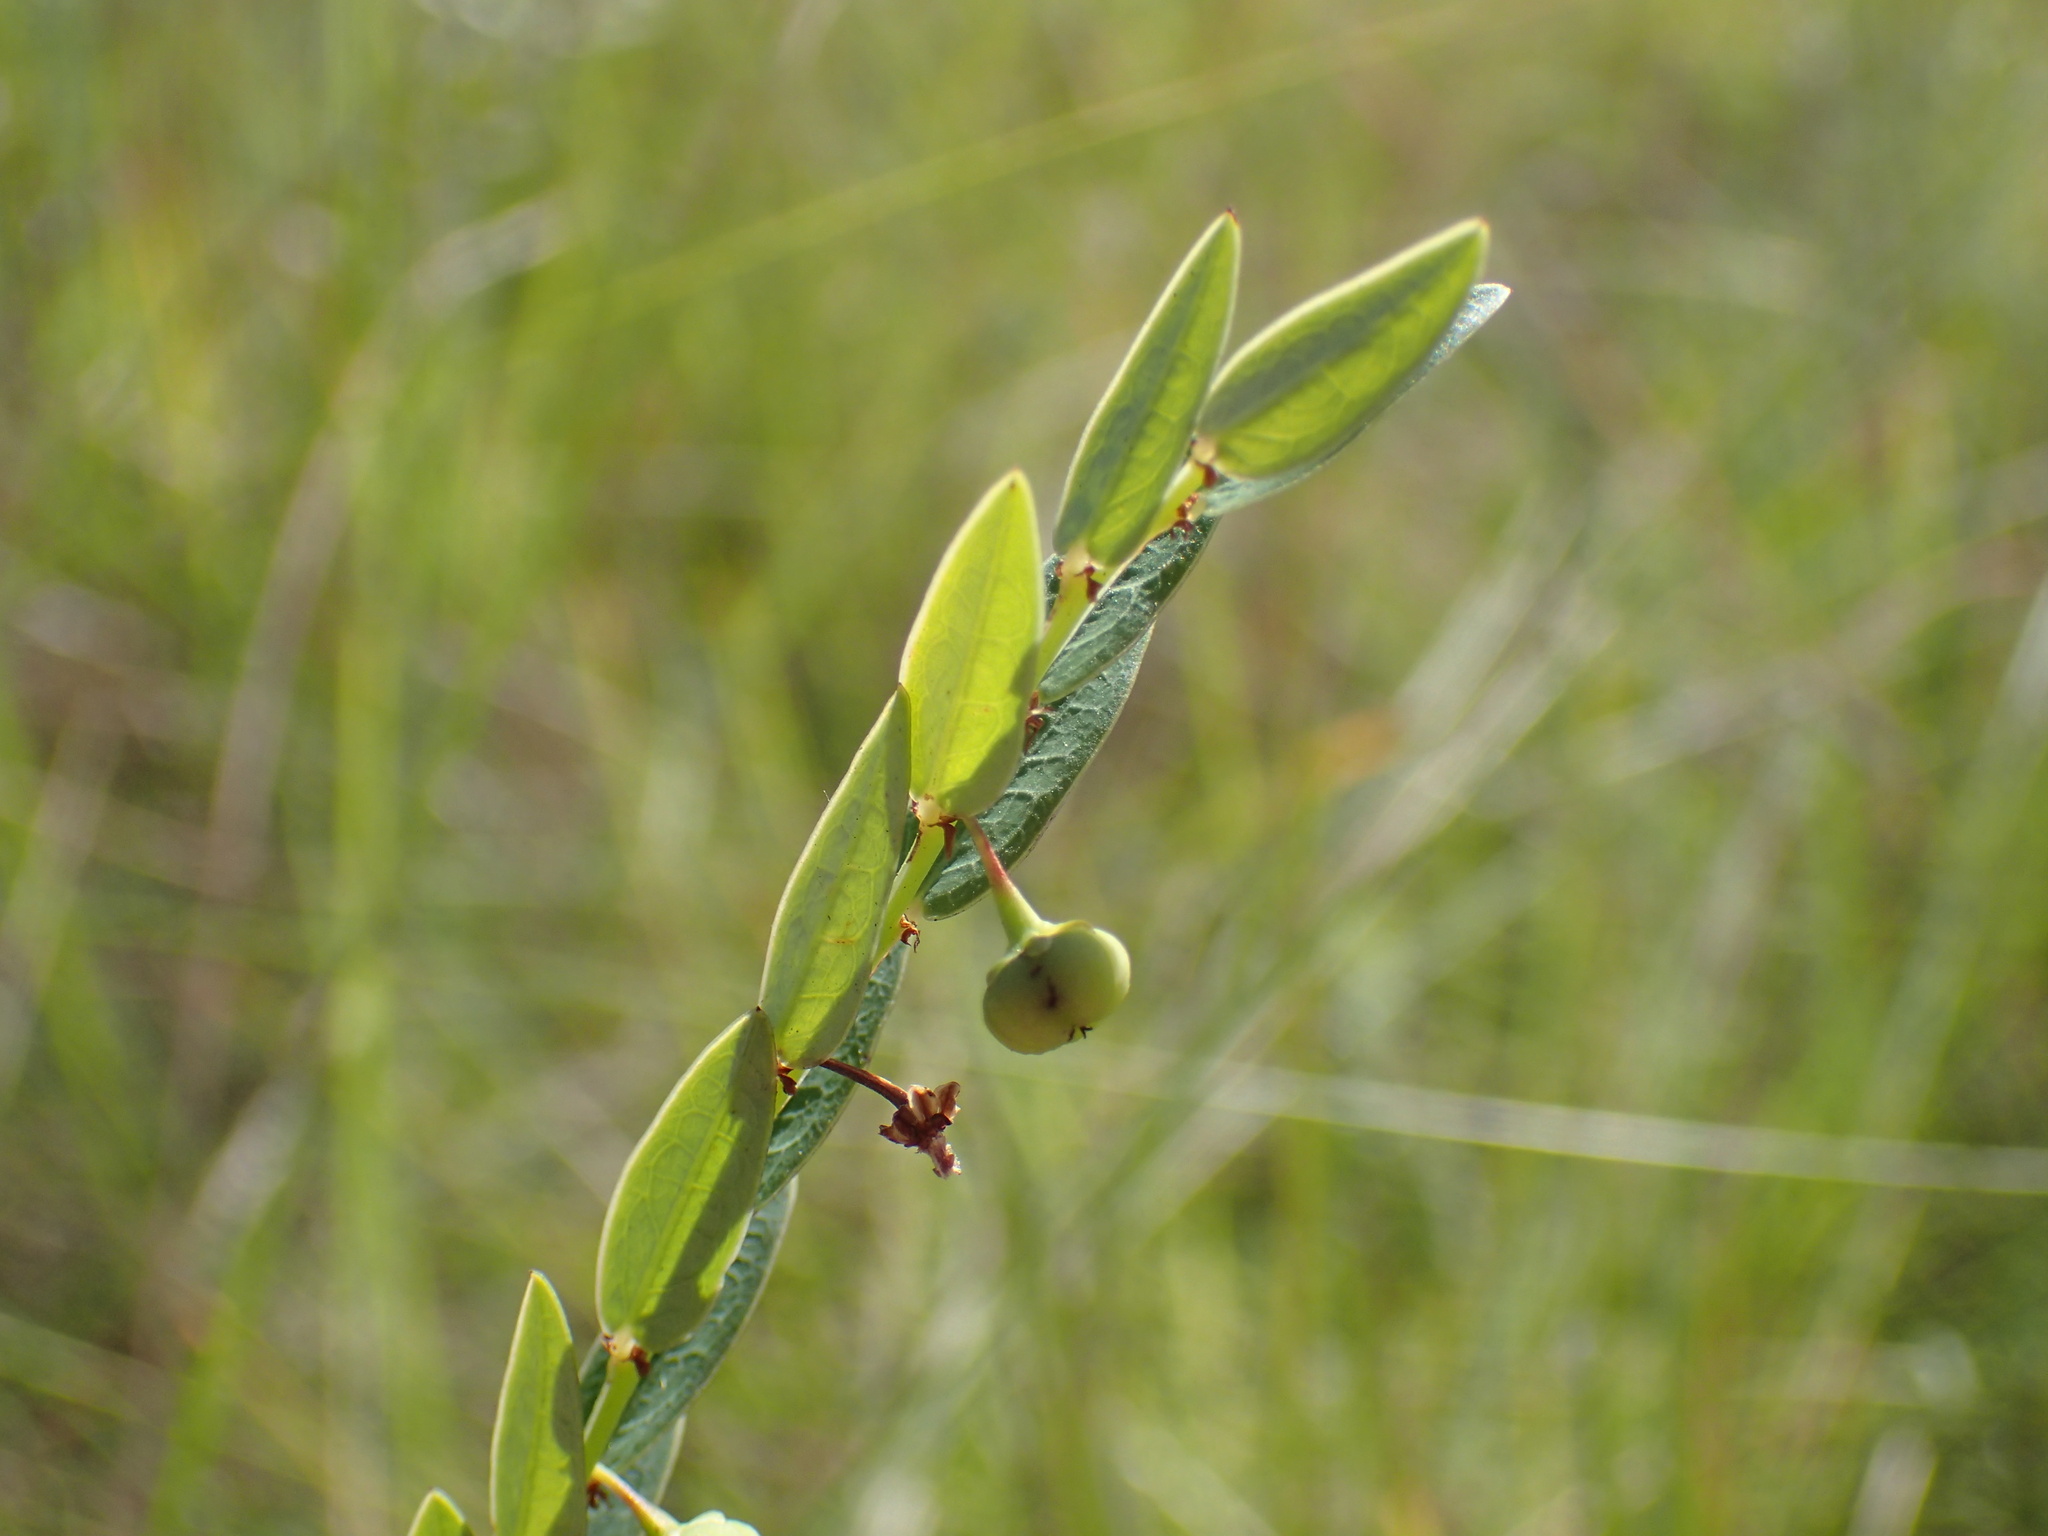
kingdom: Plantae
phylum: Tracheophyta
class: Magnoliopsida
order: Malpighiales
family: Phyllanthaceae
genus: Phyllanthus
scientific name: Phyllanthus parvulus
